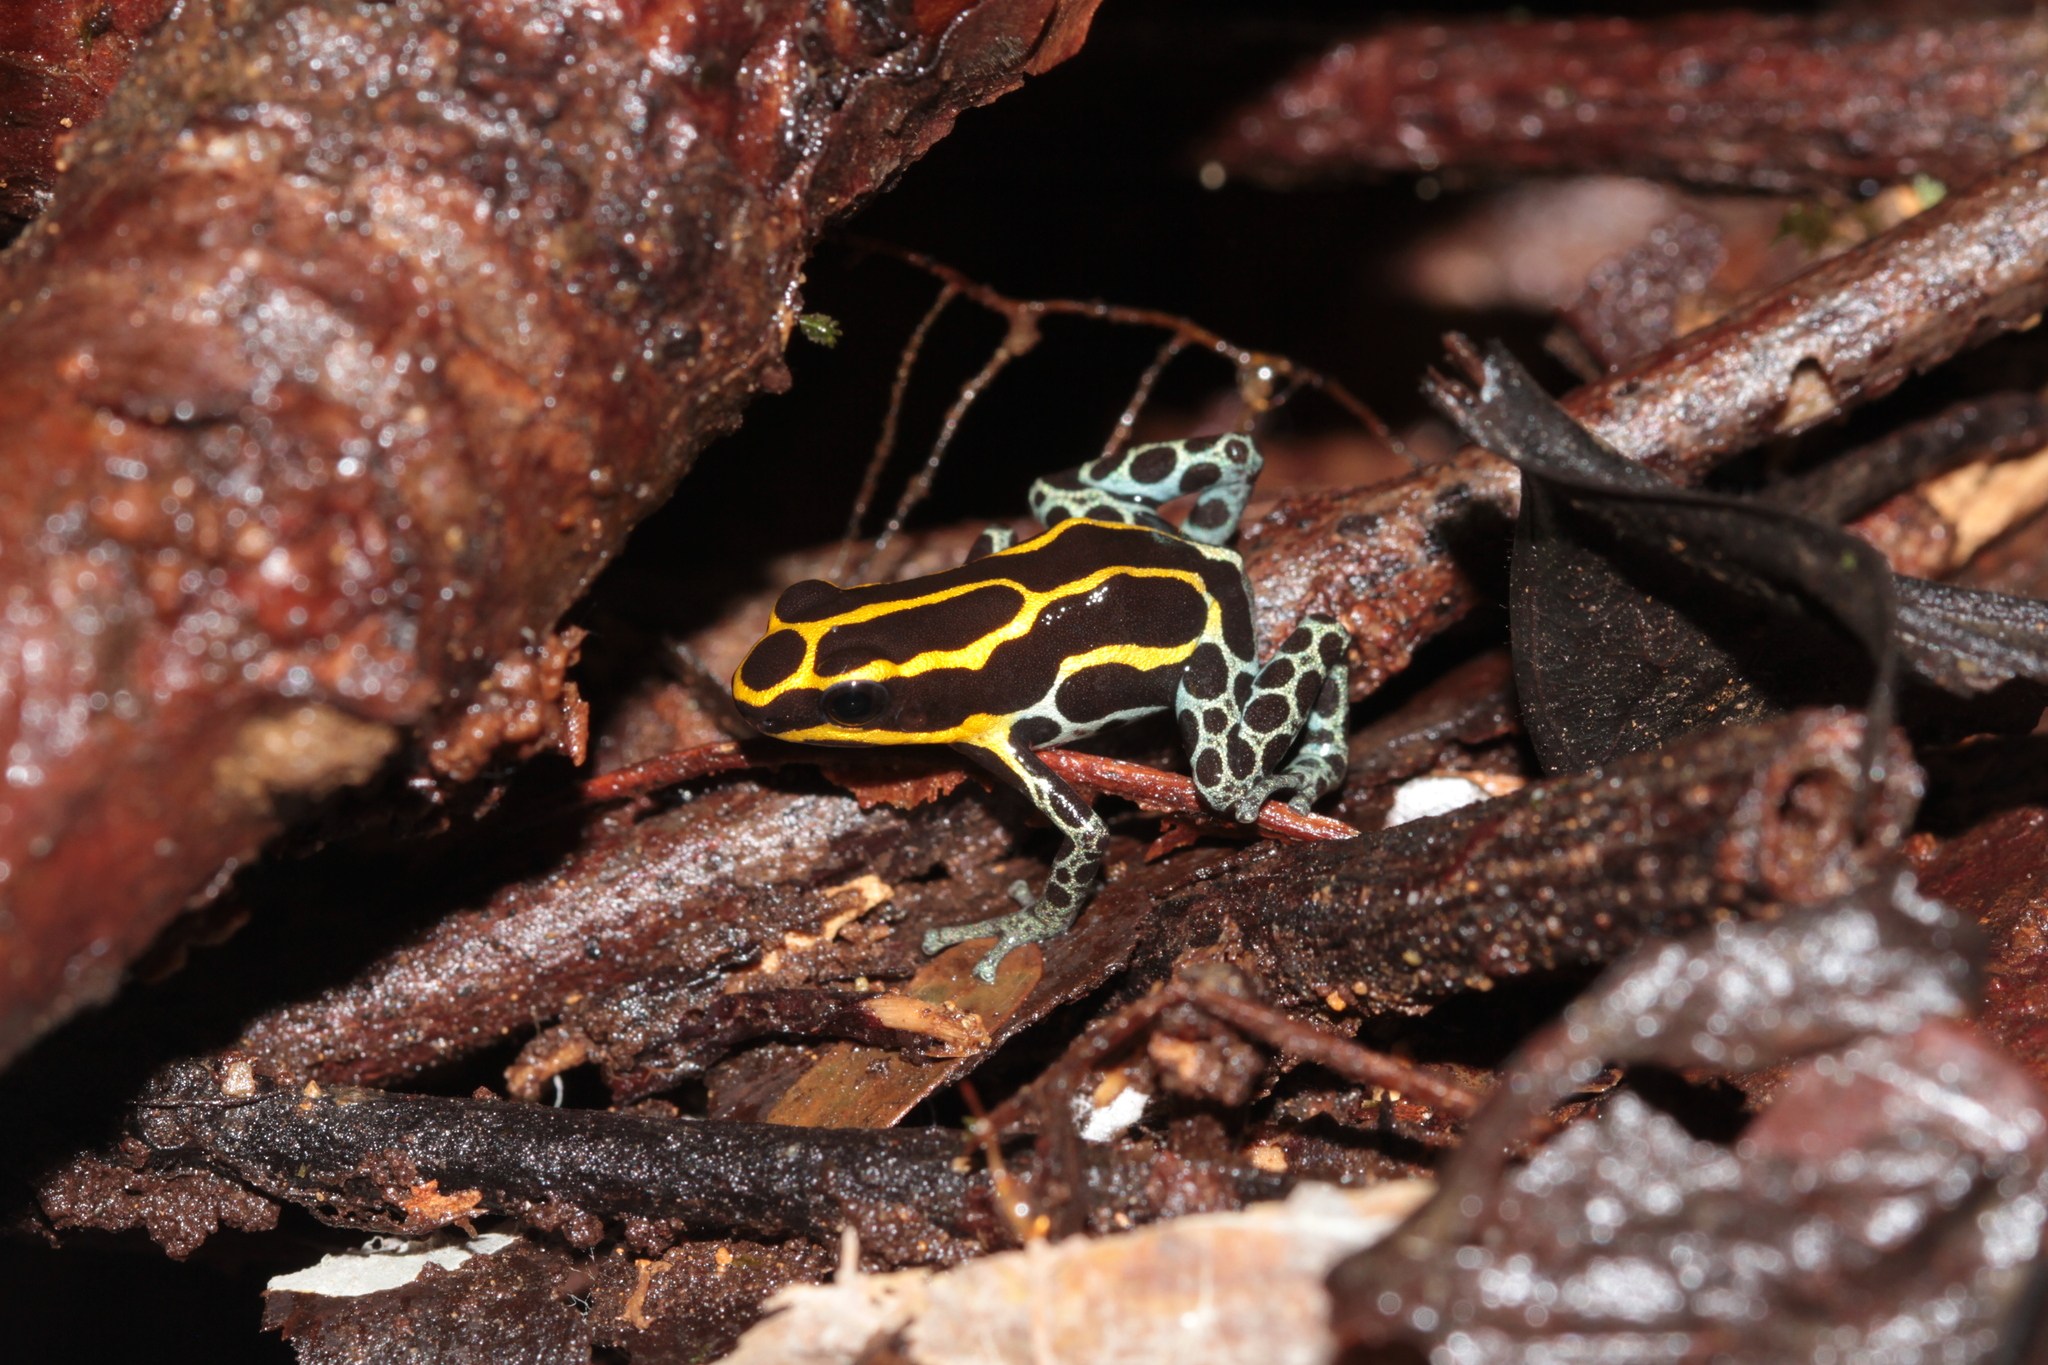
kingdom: Animalia
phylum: Chordata
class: Amphibia
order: Anura
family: Dendrobatidae
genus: Ranitomeya
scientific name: Ranitomeya variabilis
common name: Variable poison frog
